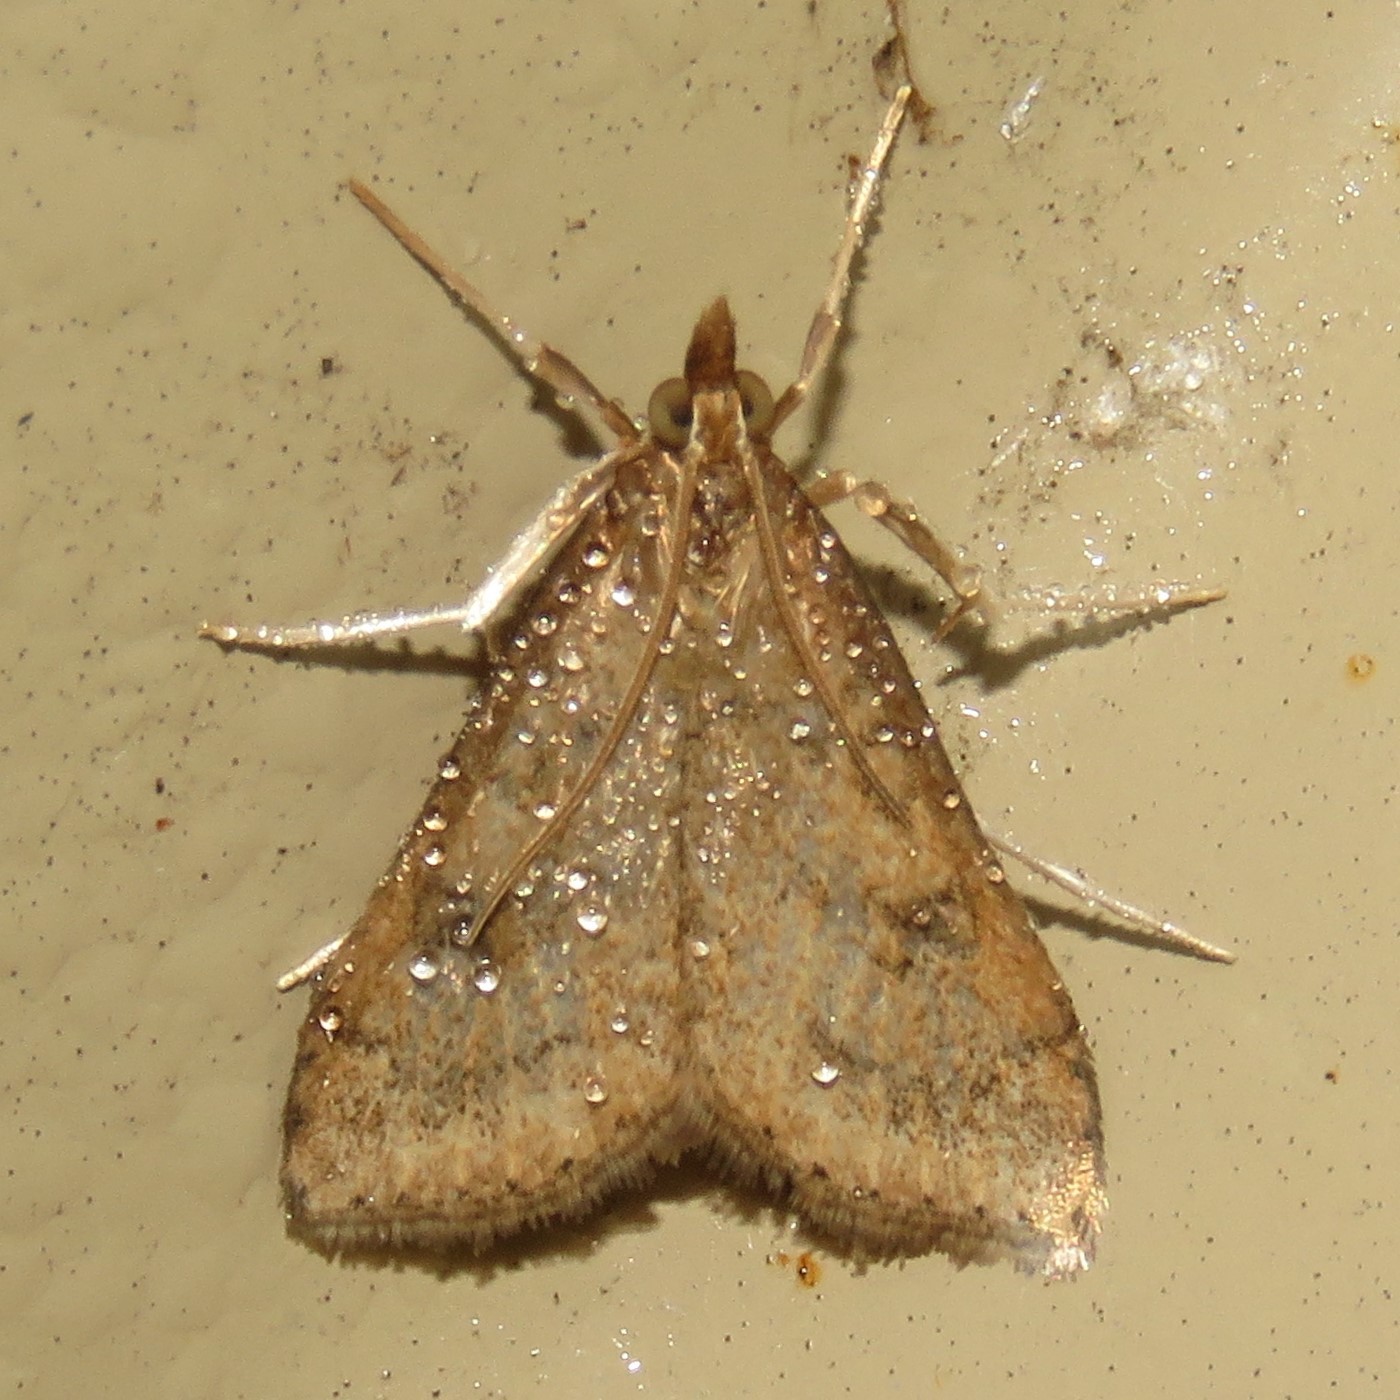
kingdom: Animalia
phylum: Arthropoda
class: Insecta
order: Lepidoptera
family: Crambidae
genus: Udea
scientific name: Udea rubigalis
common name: Celery leaftier moth
